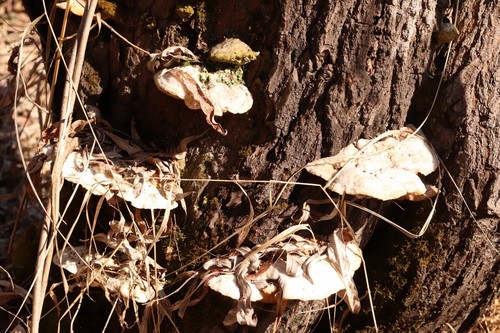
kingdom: Fungi
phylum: Basidiomycota
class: Agaricomycetes
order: Polyporales
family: Polyporaceae
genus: Trametes
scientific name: Trametes suaveolens
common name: Fragrant bracket
